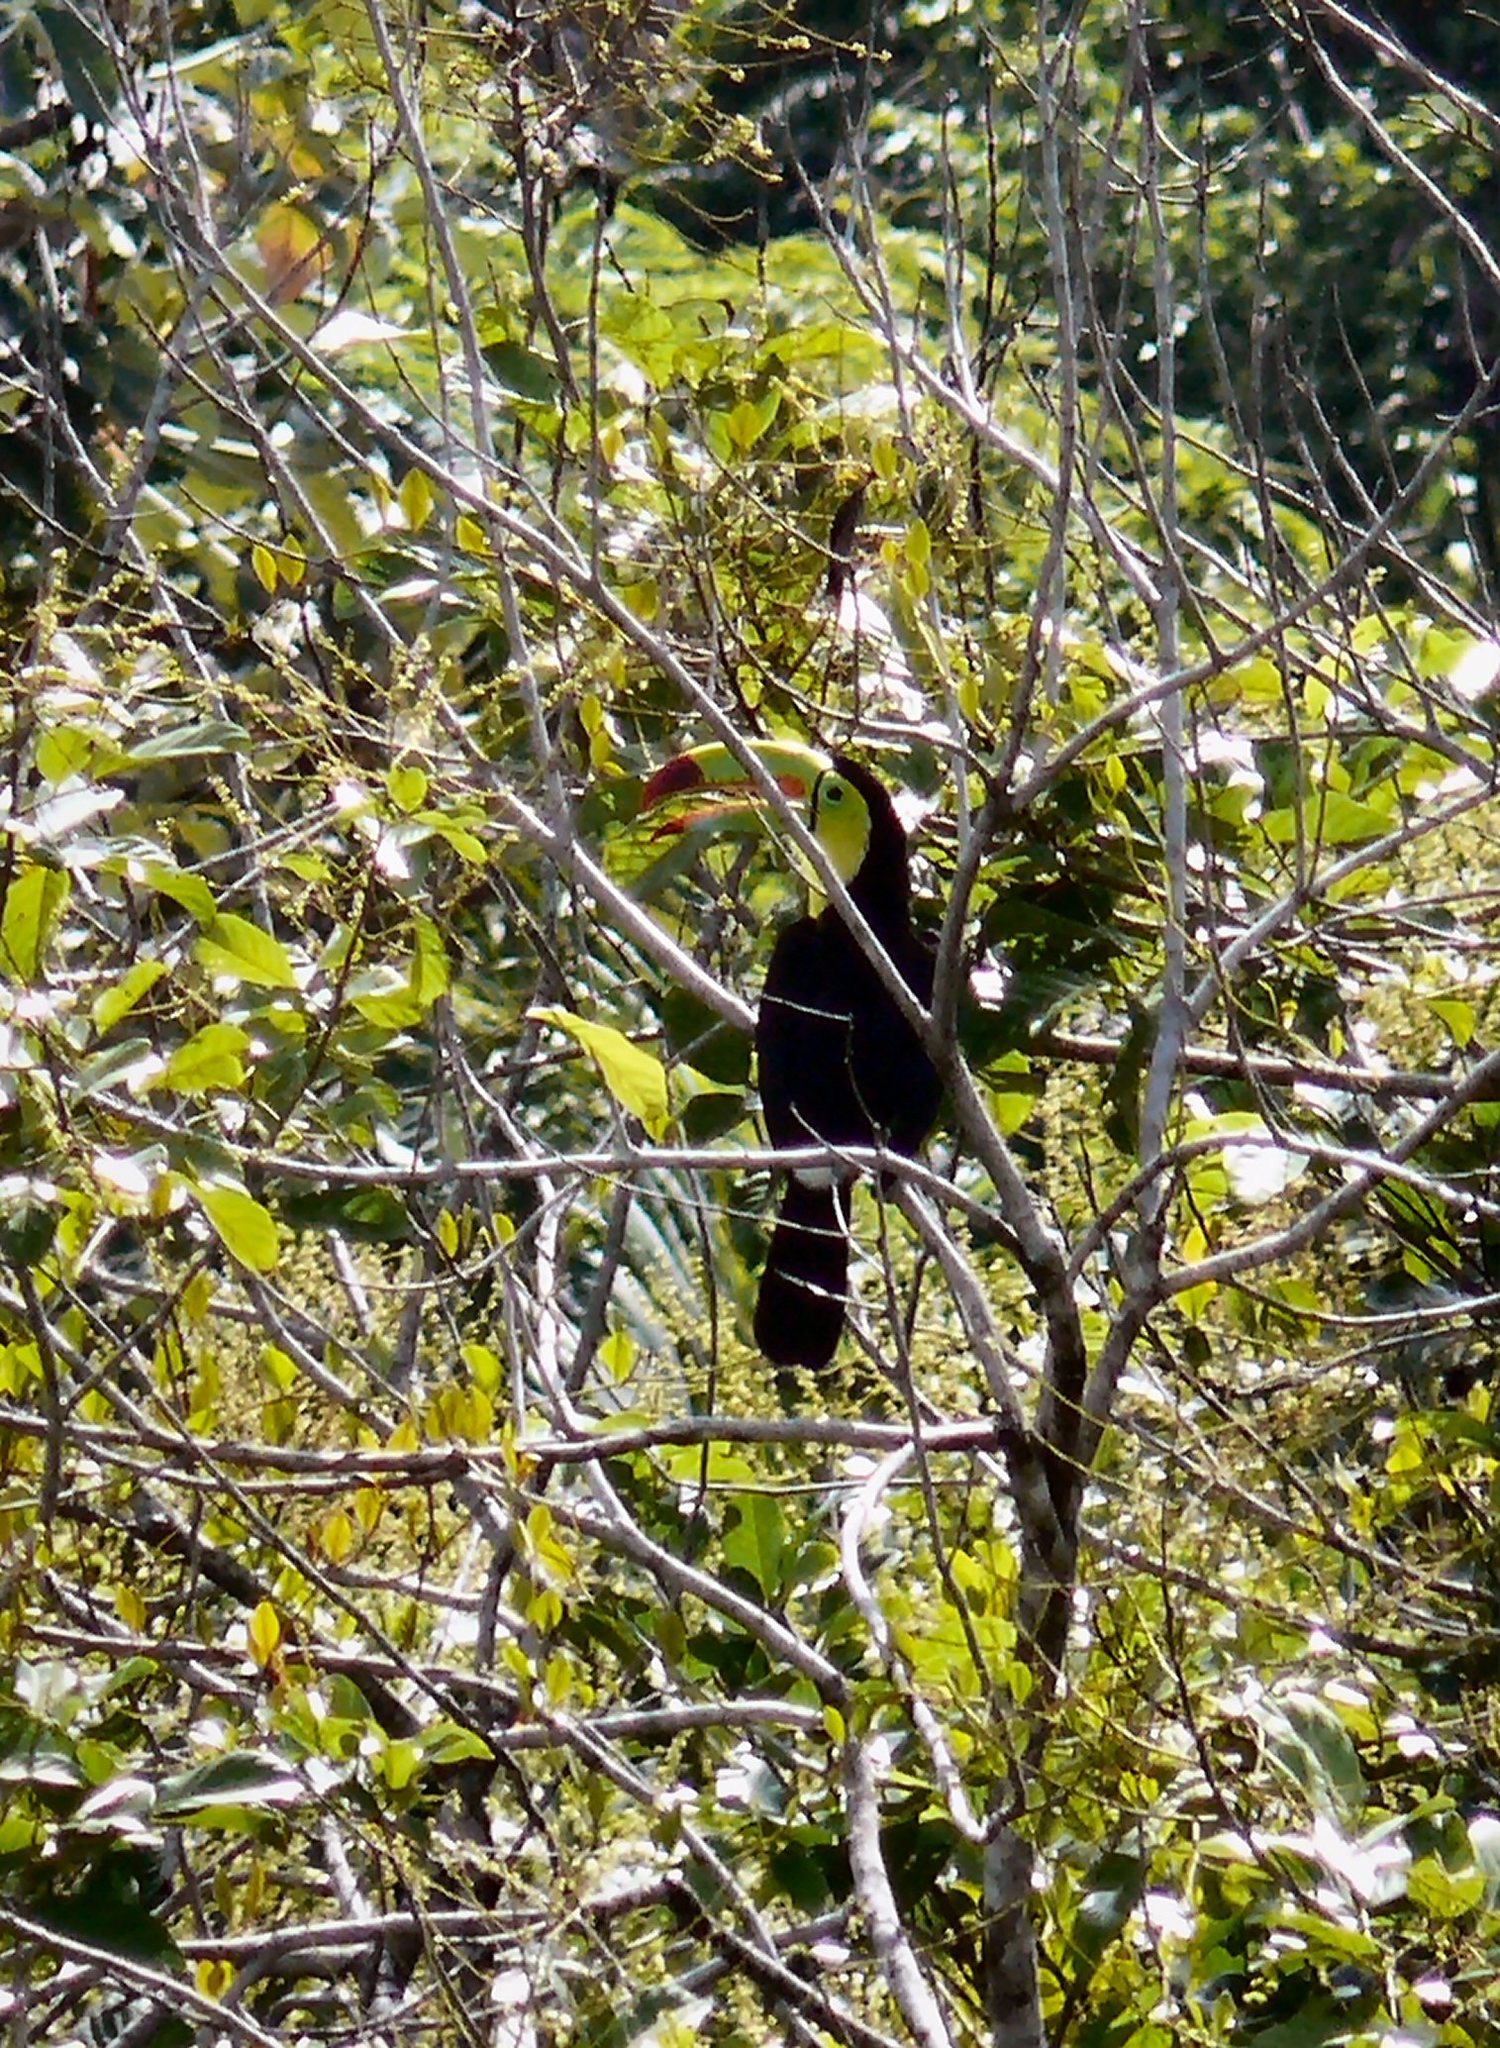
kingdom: Animalia
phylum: Chordata
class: Aves
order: Piciformes
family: Ramphastidae
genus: Ramphastos
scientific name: Ramphastos sulfuratus
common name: Keel-billed toucan
